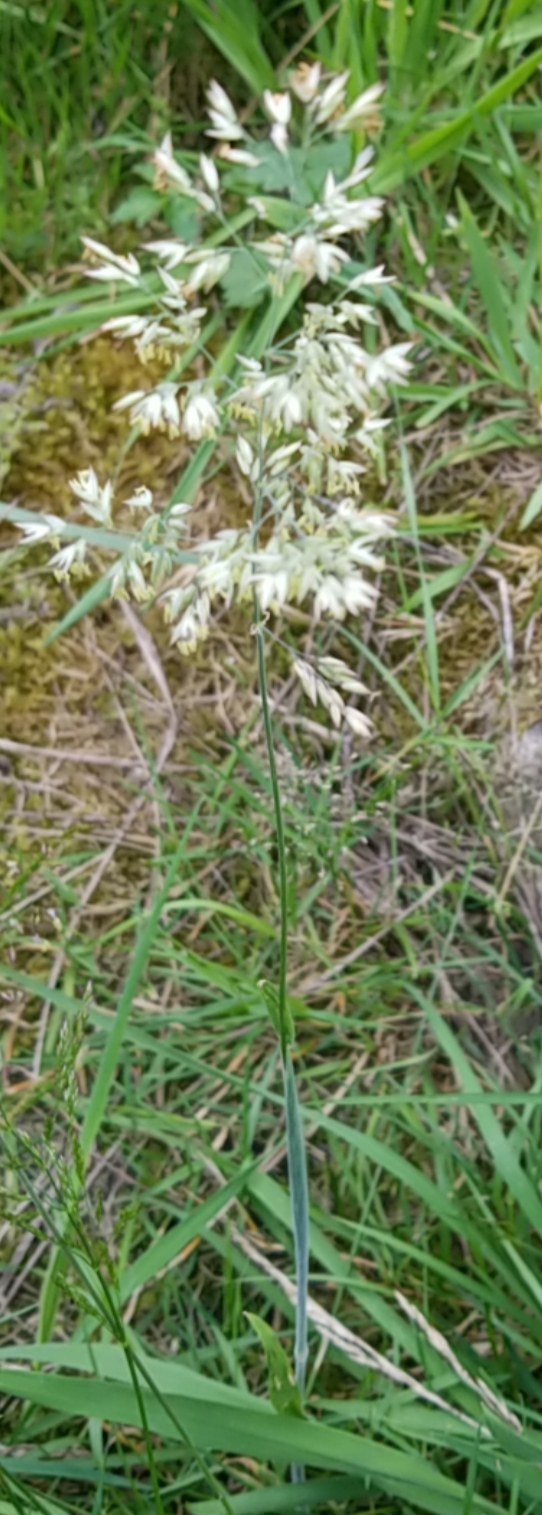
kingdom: Plantae
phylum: Tracheophyta
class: Liliopsida
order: Poales
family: Poaceae
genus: Holcus
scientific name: Holcus lanatus
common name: Yorkshire-fog
